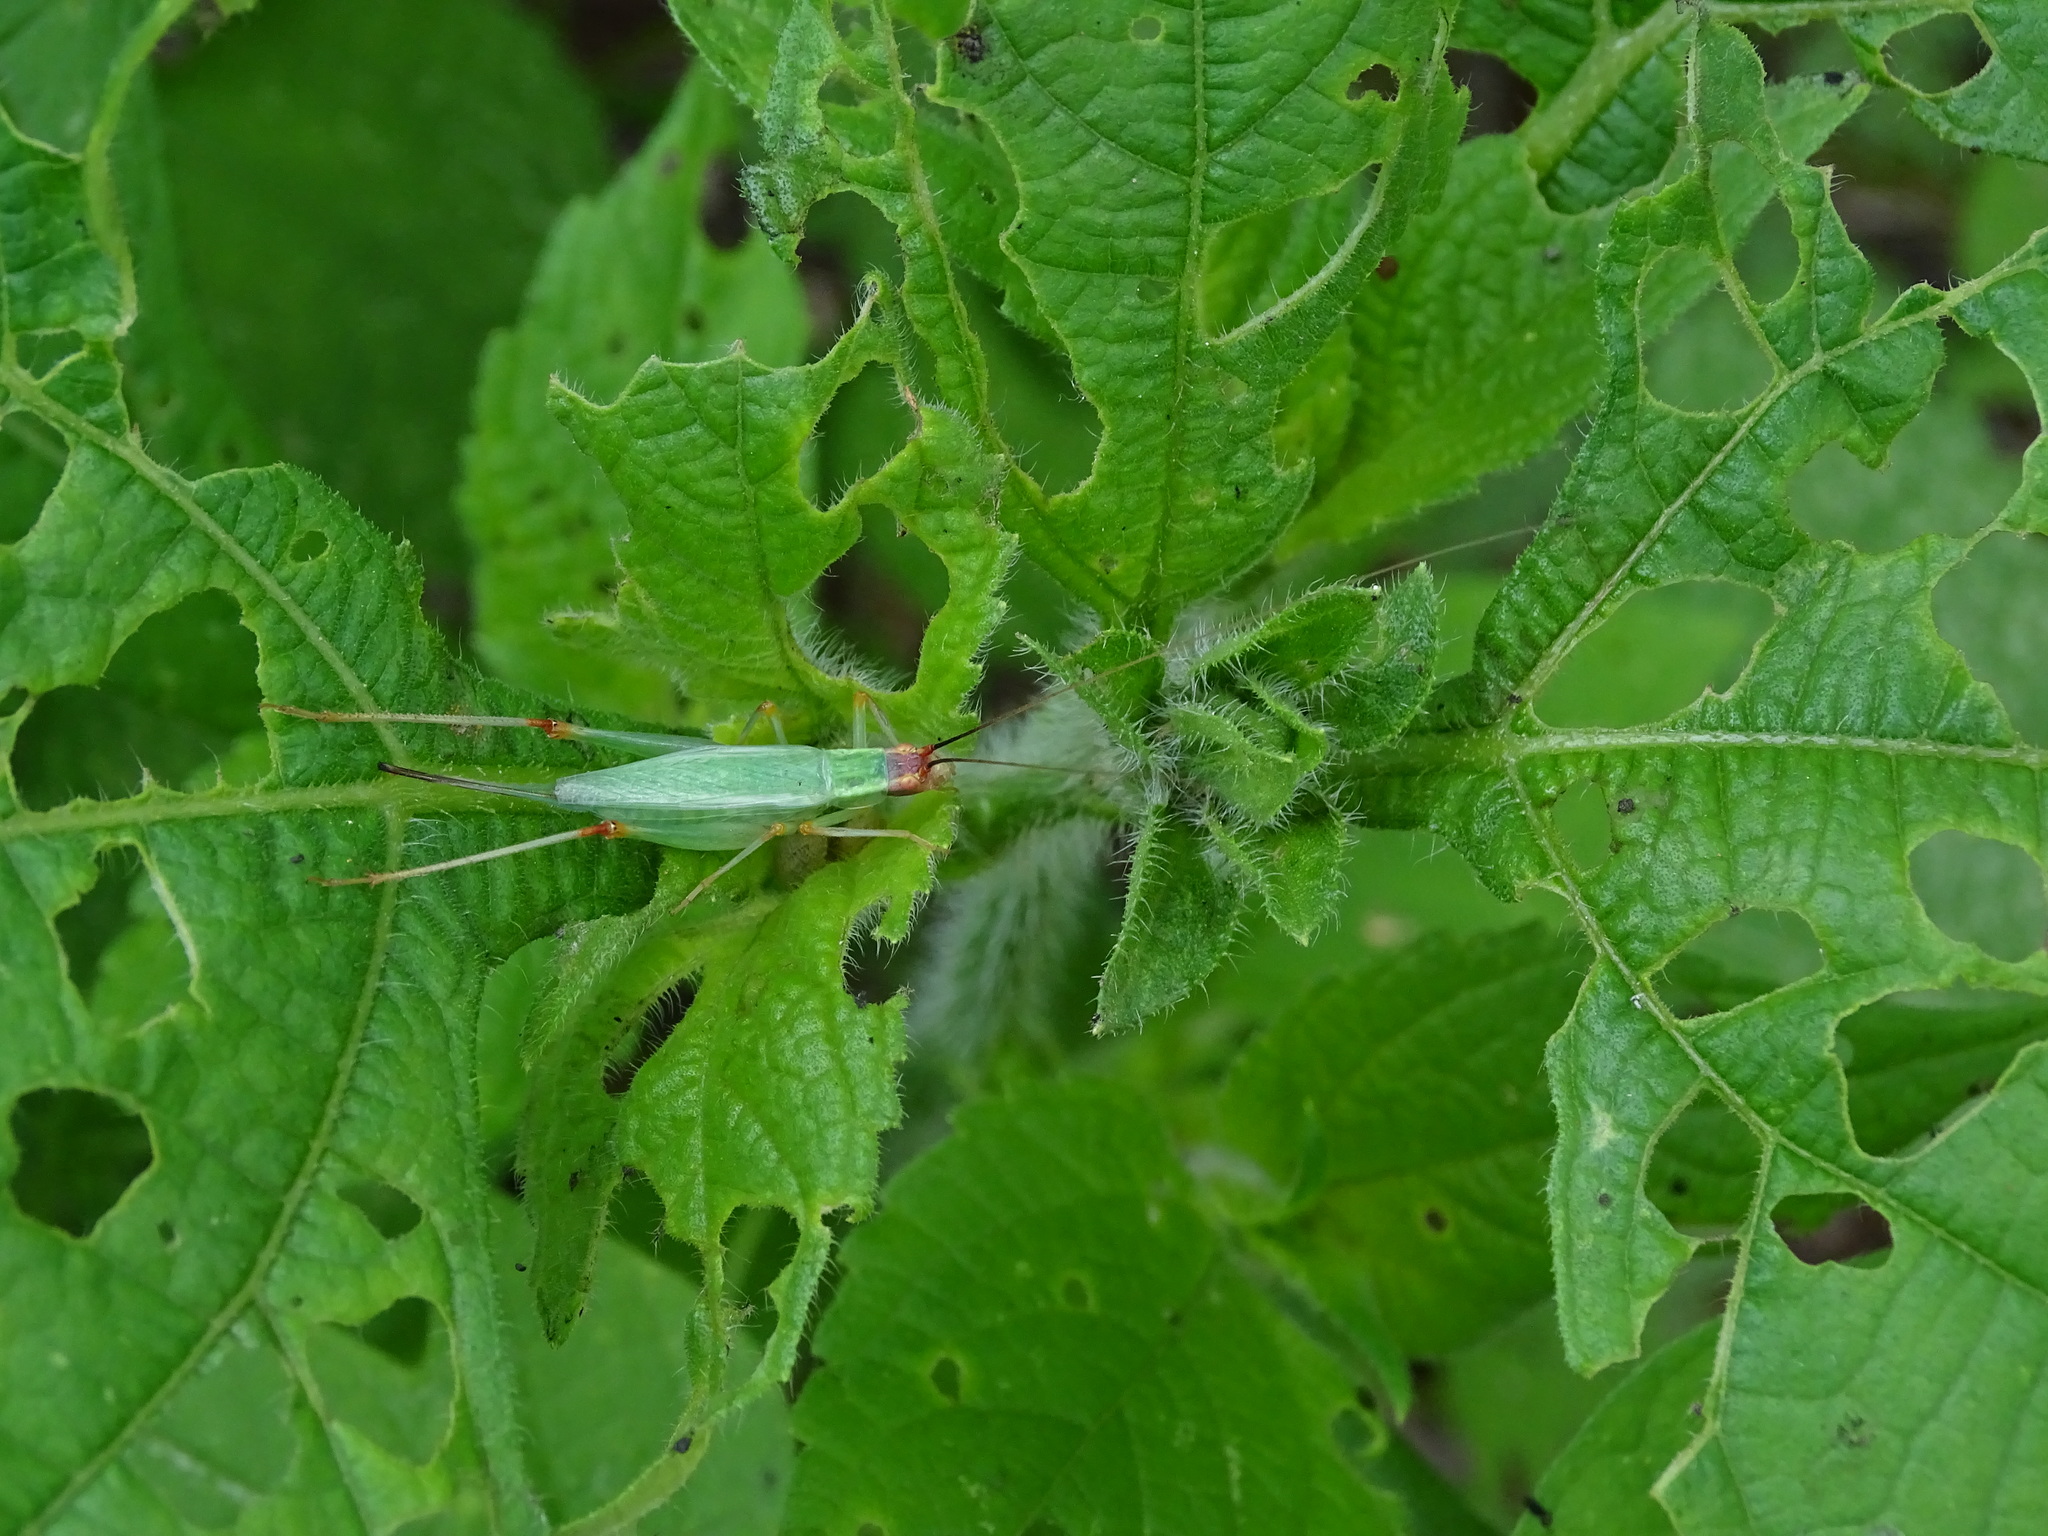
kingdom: Animalia
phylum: Arthropoda
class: Insecta
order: Orthoptera
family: Gryllidae
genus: Oecanthus
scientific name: Oecanthus californicus
